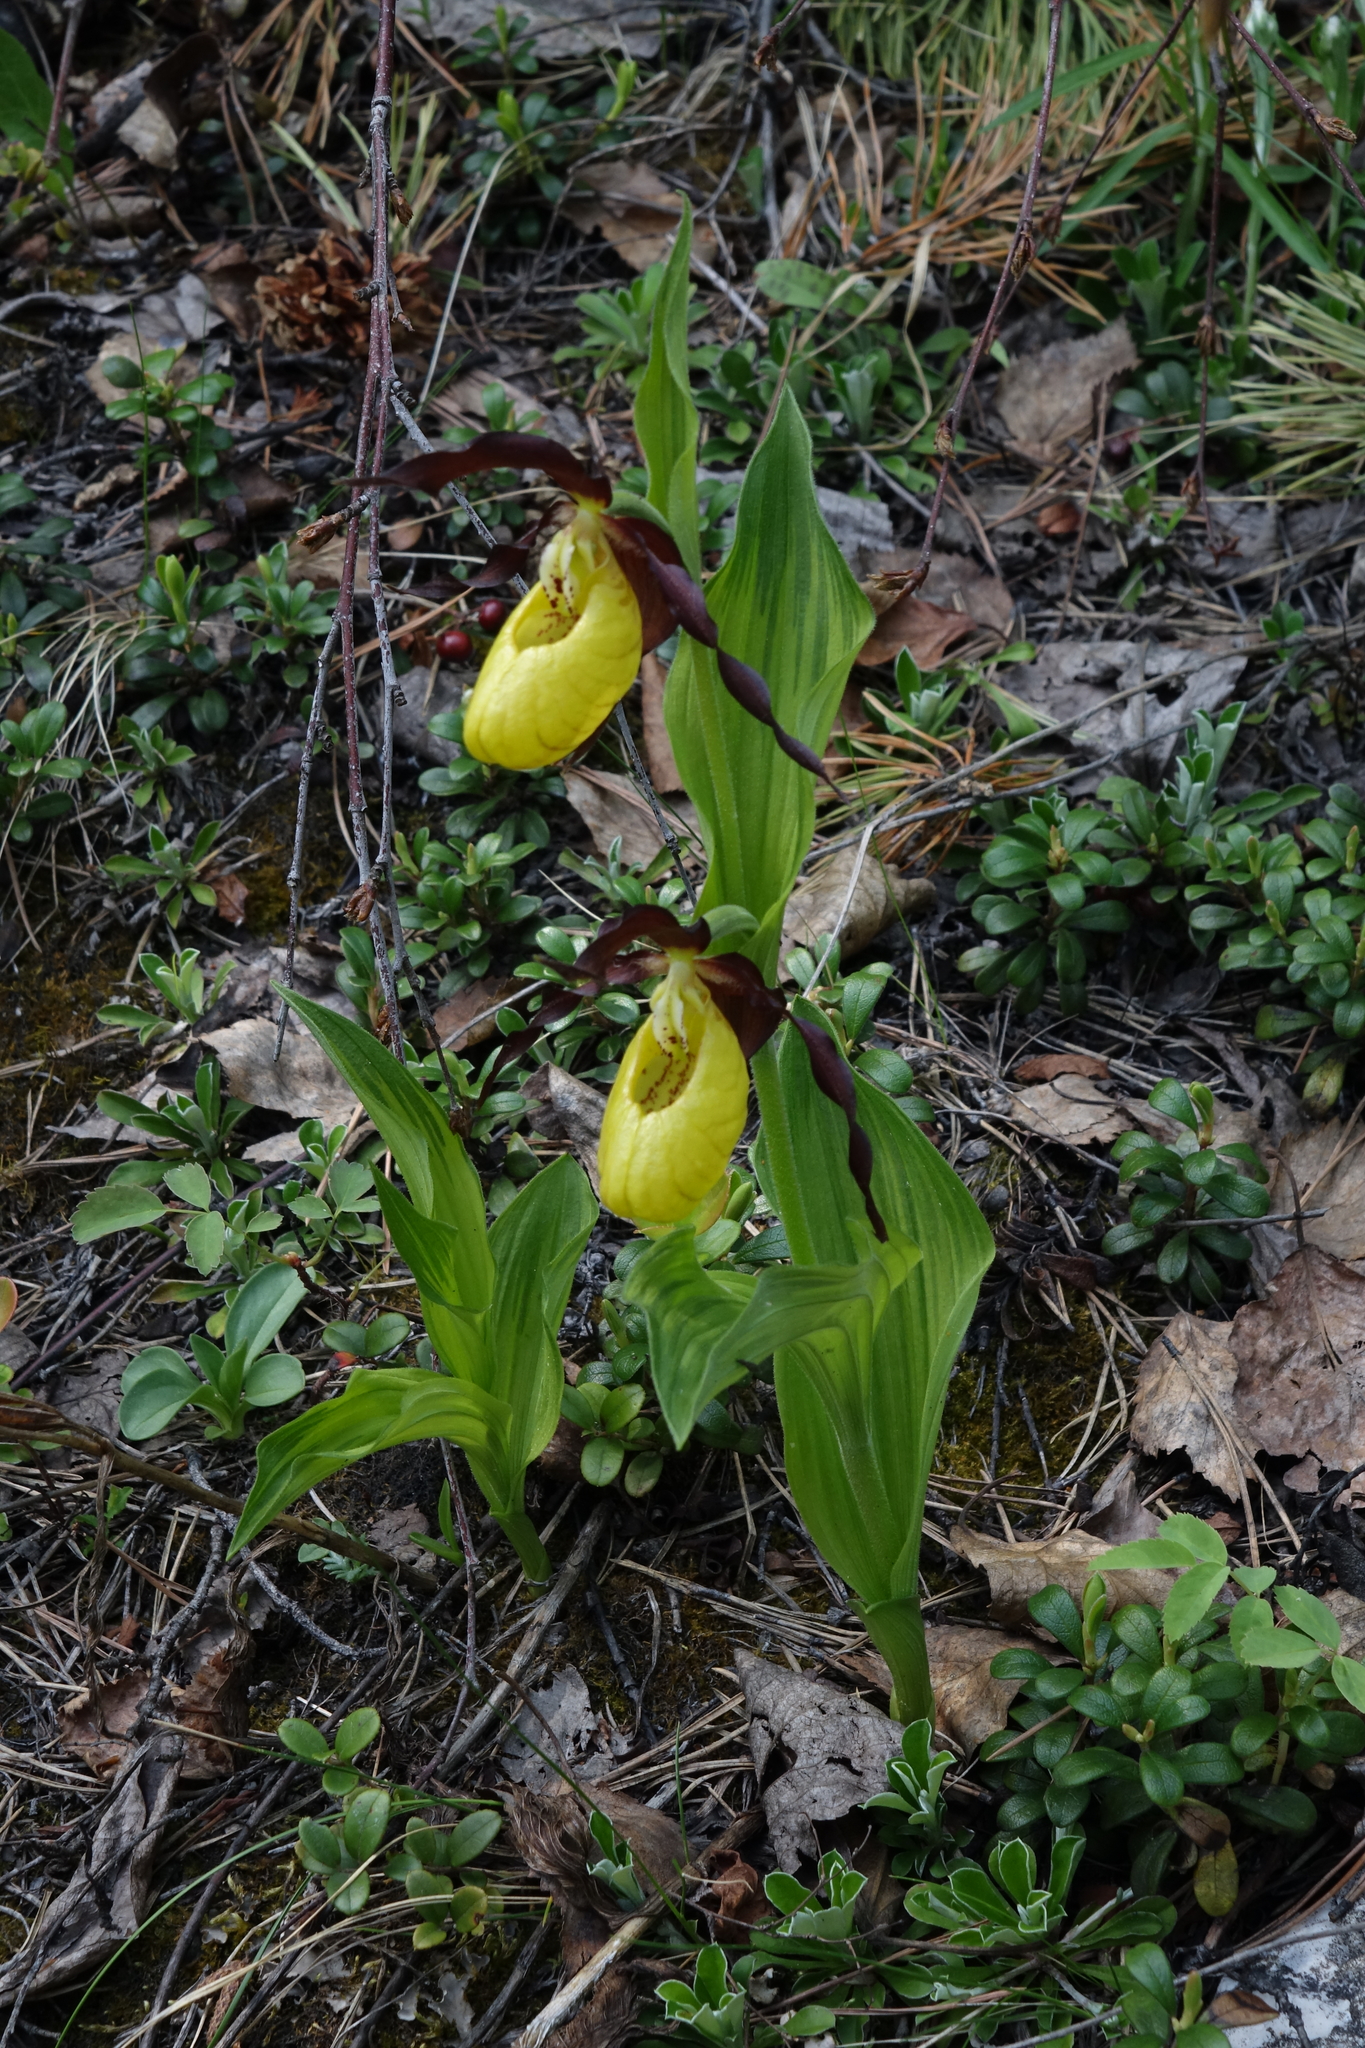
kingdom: Plantae
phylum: Tracheophyta
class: Liliopsida
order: Asparagales
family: Orchidaceae
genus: Cypripedium
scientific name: Cypripedium calceolus
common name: Lady's-slipper
